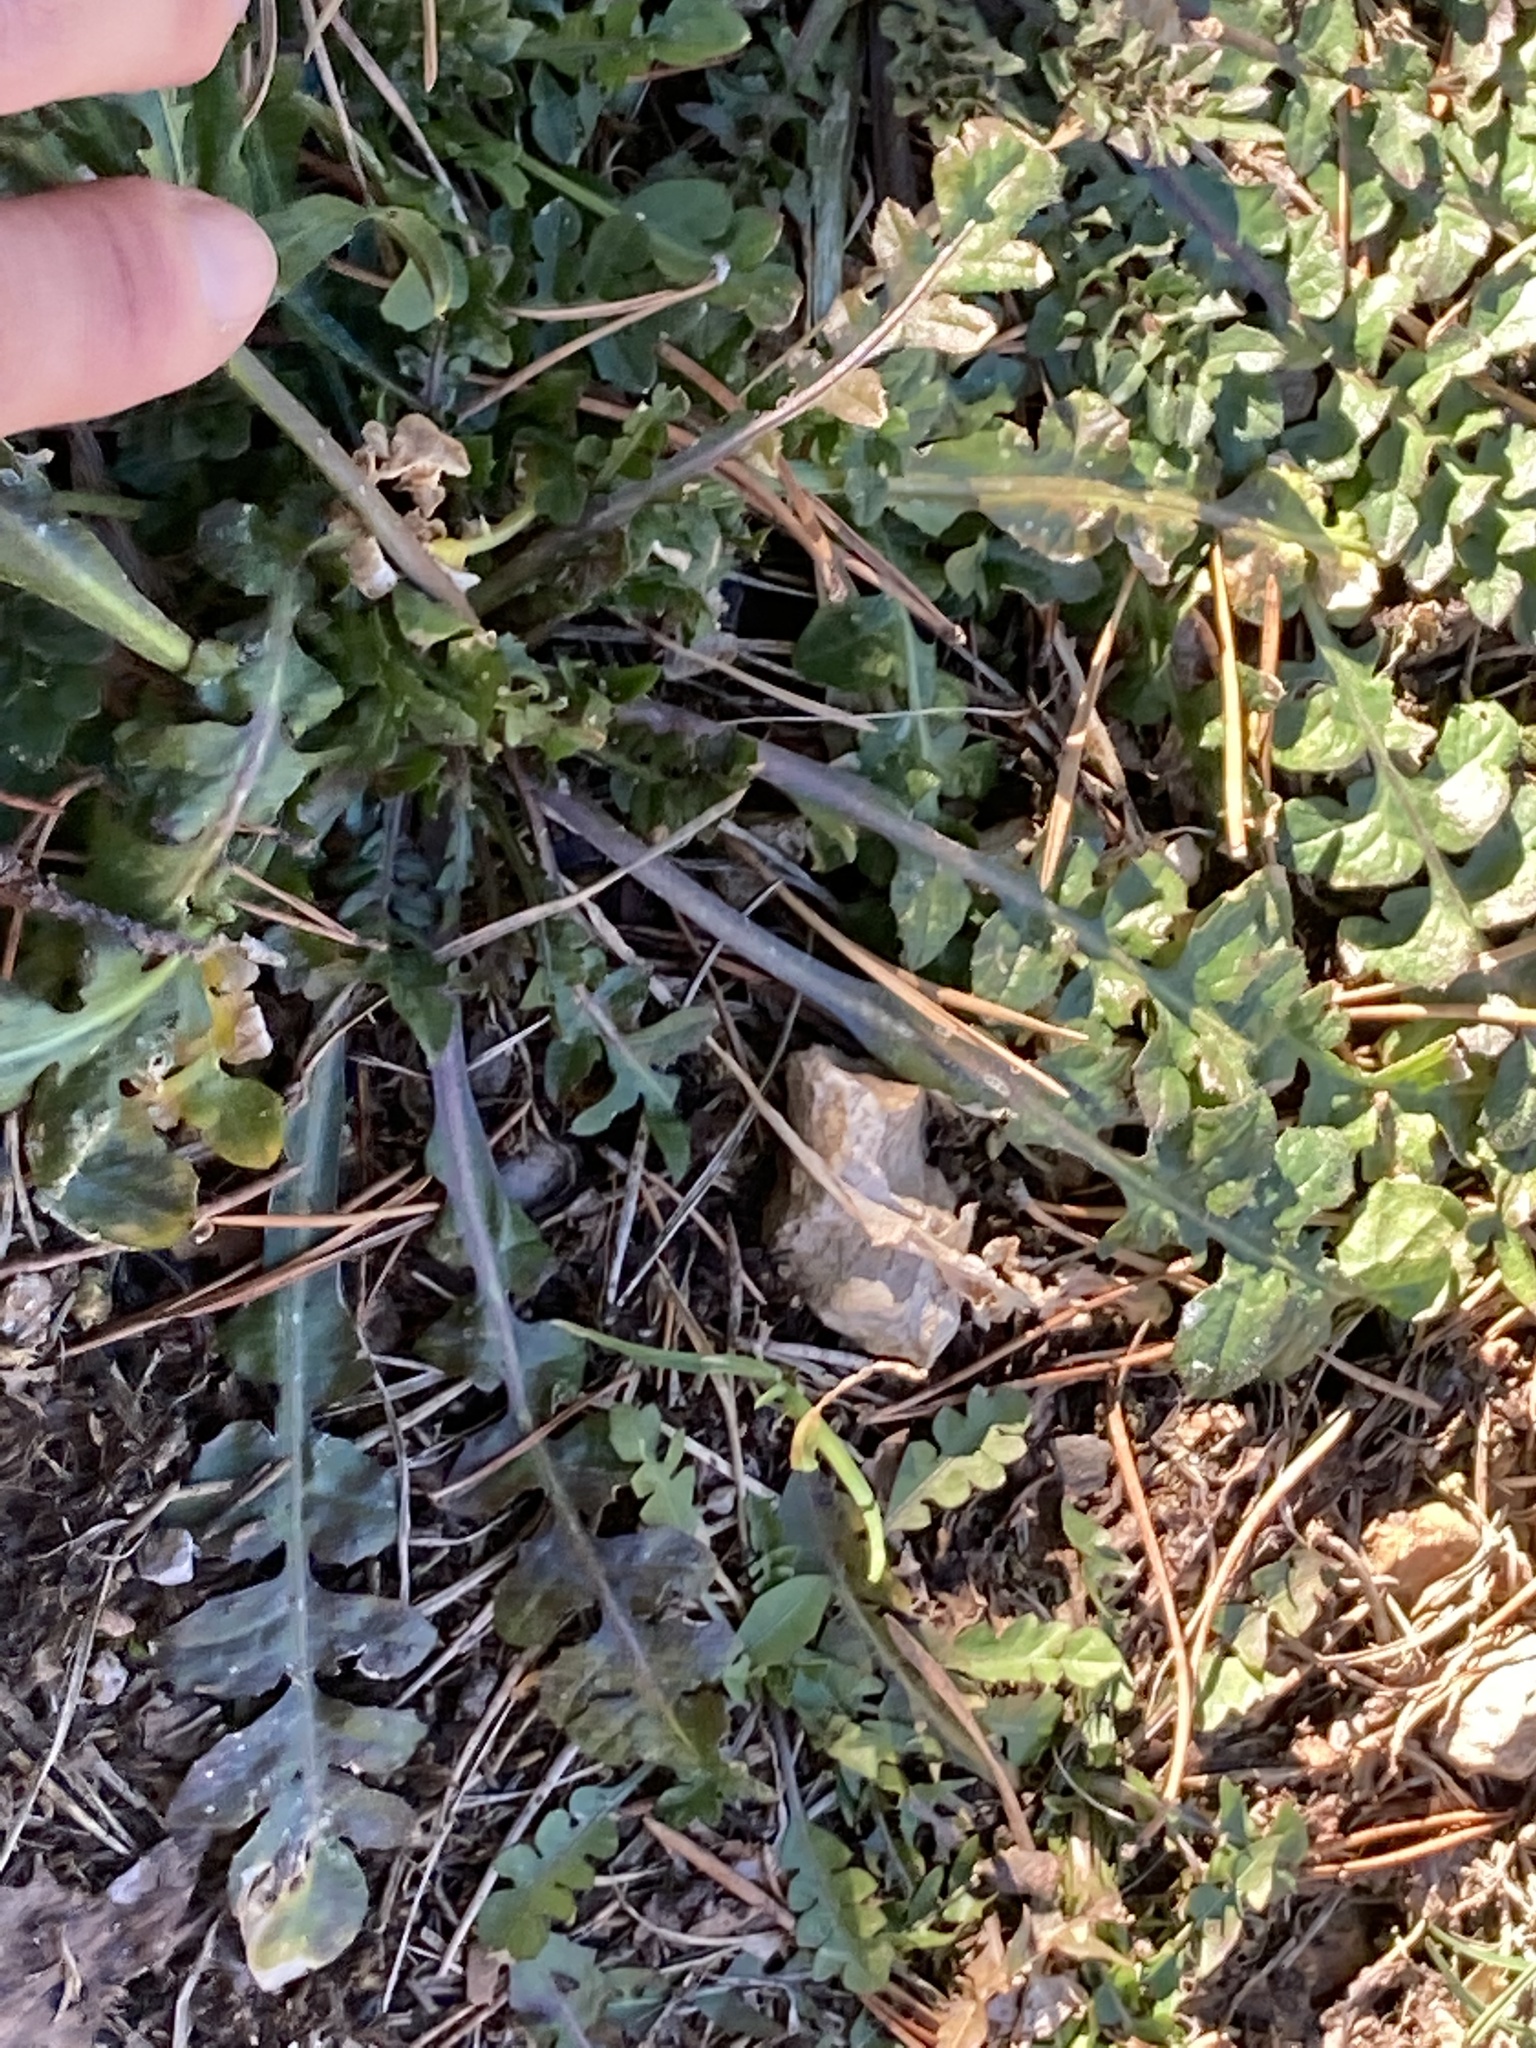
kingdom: Plantae
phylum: Tracheophyta
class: Magnoliopsida
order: Brassicales
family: Brassicaceae
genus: Capsella
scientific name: Capsella bursa-pastoris
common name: Shepherd's purse
